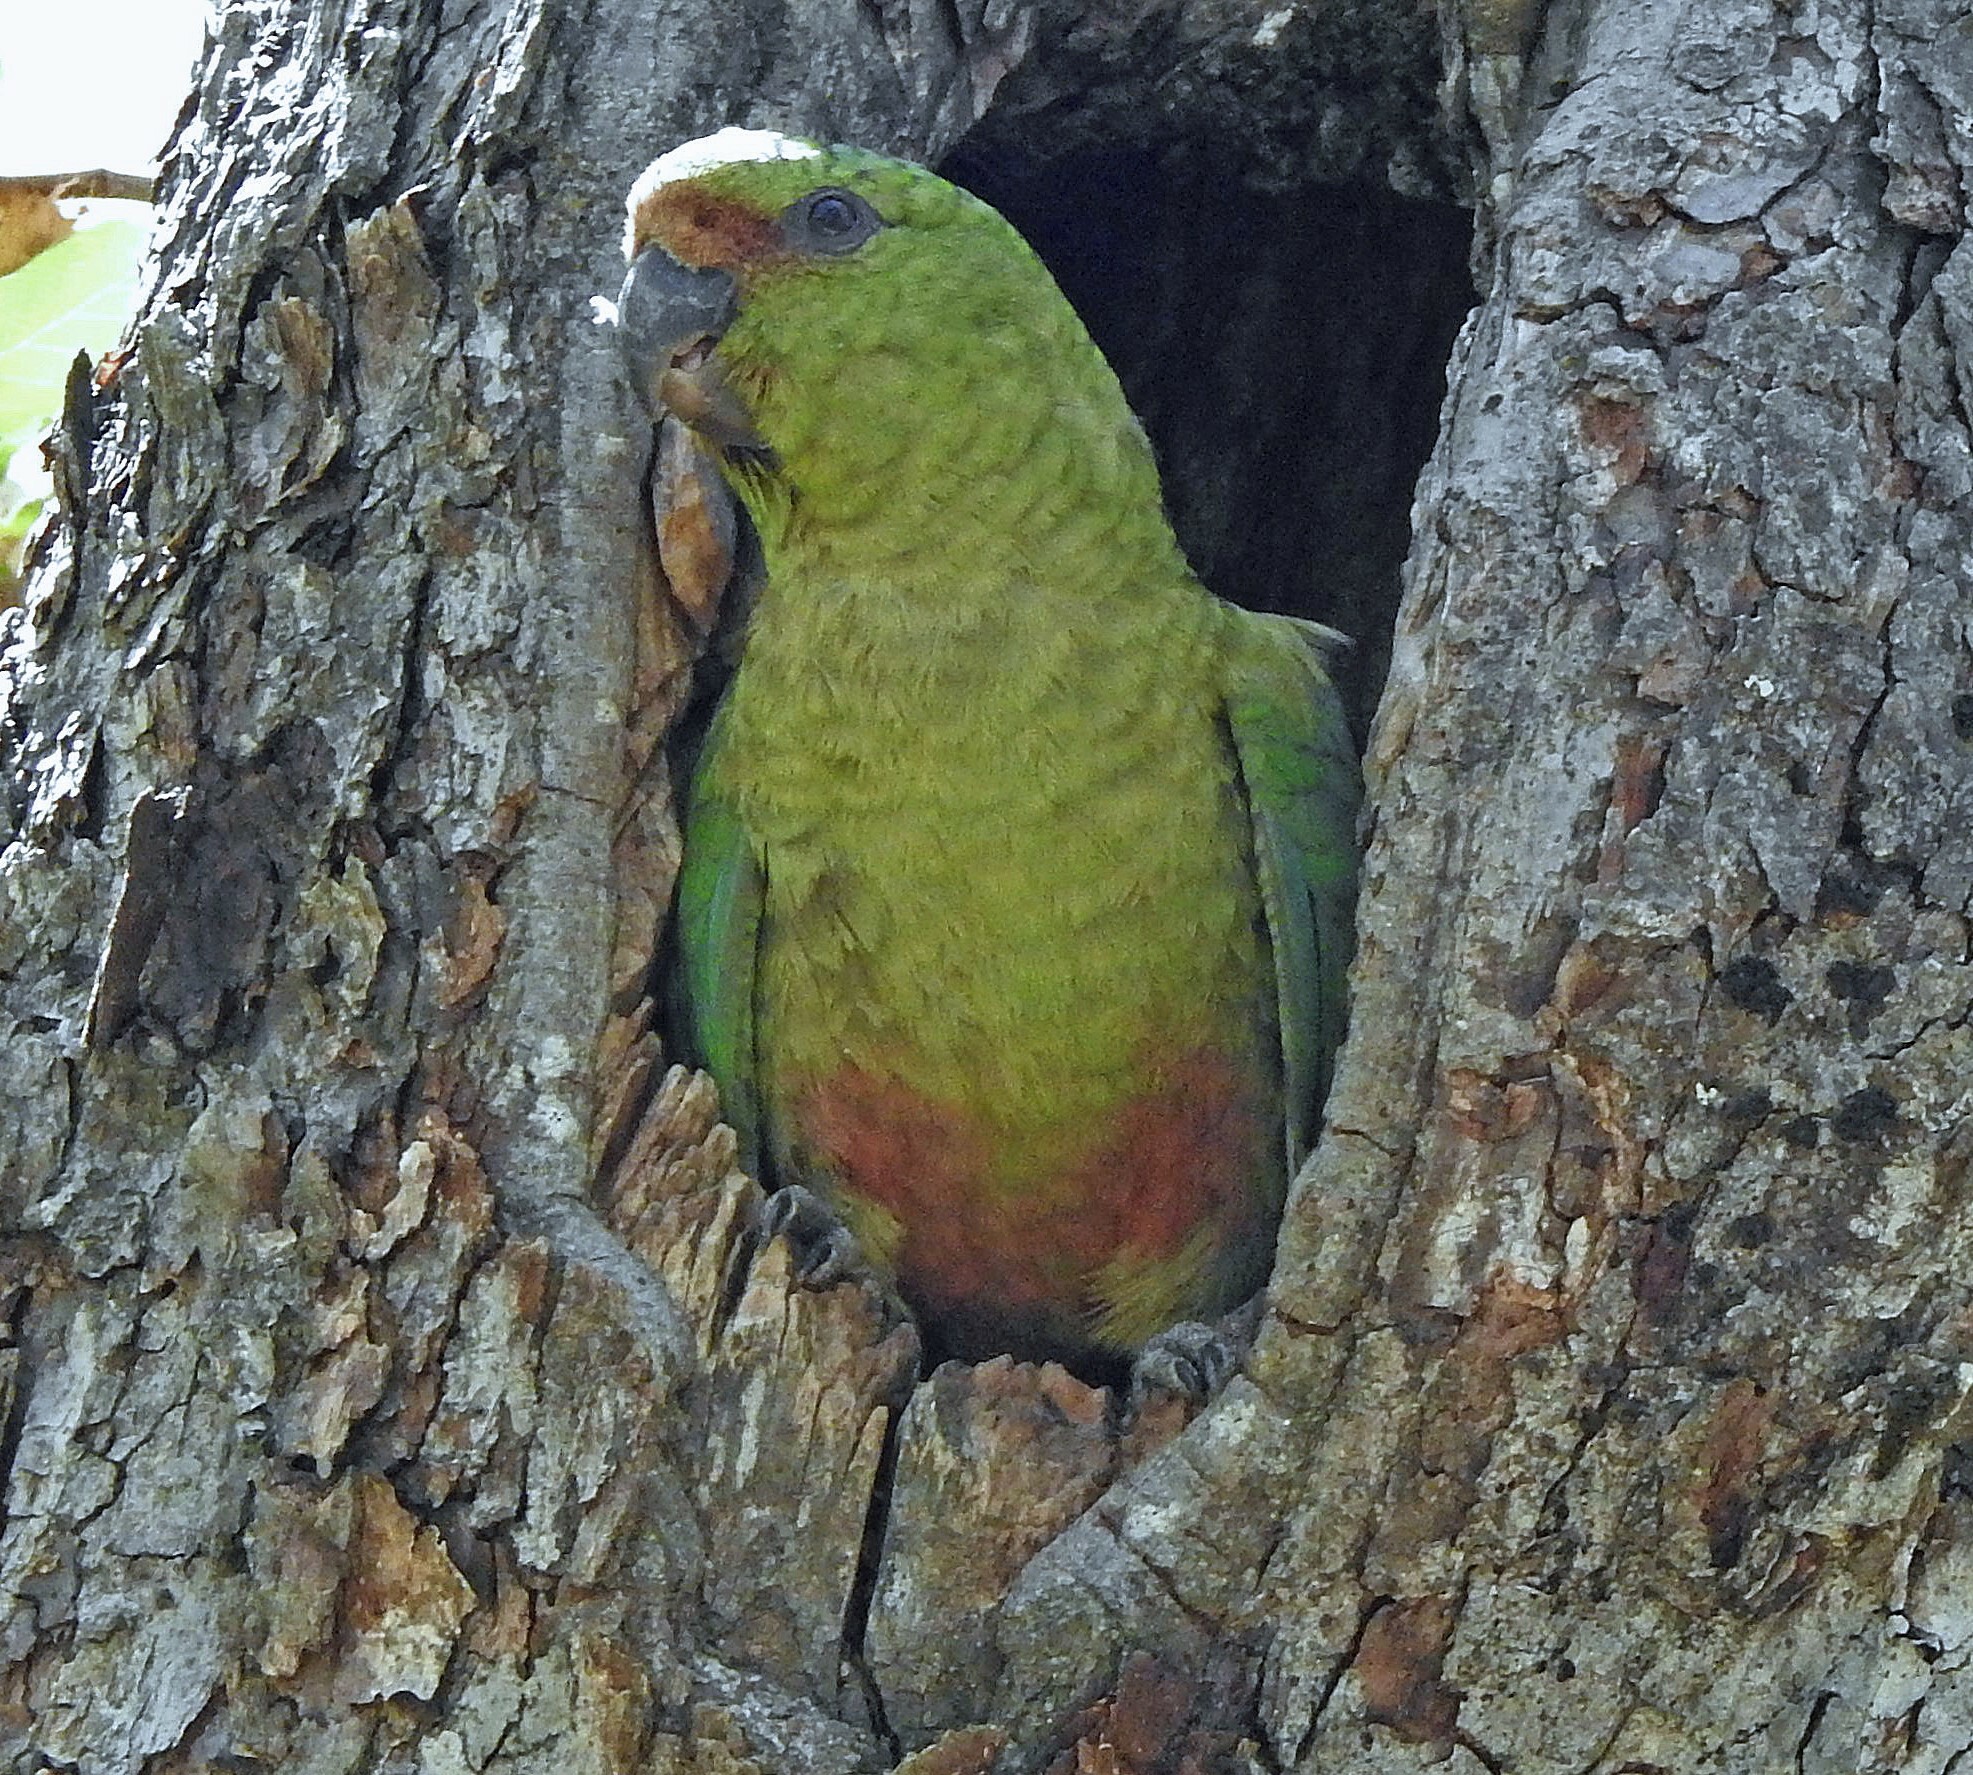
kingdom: Animalia
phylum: Chordata
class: Aves
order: Psittaciformes
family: Psittacidae
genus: Enicognathus
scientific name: Enicognathus ferrugineus
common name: Austral parakeet
